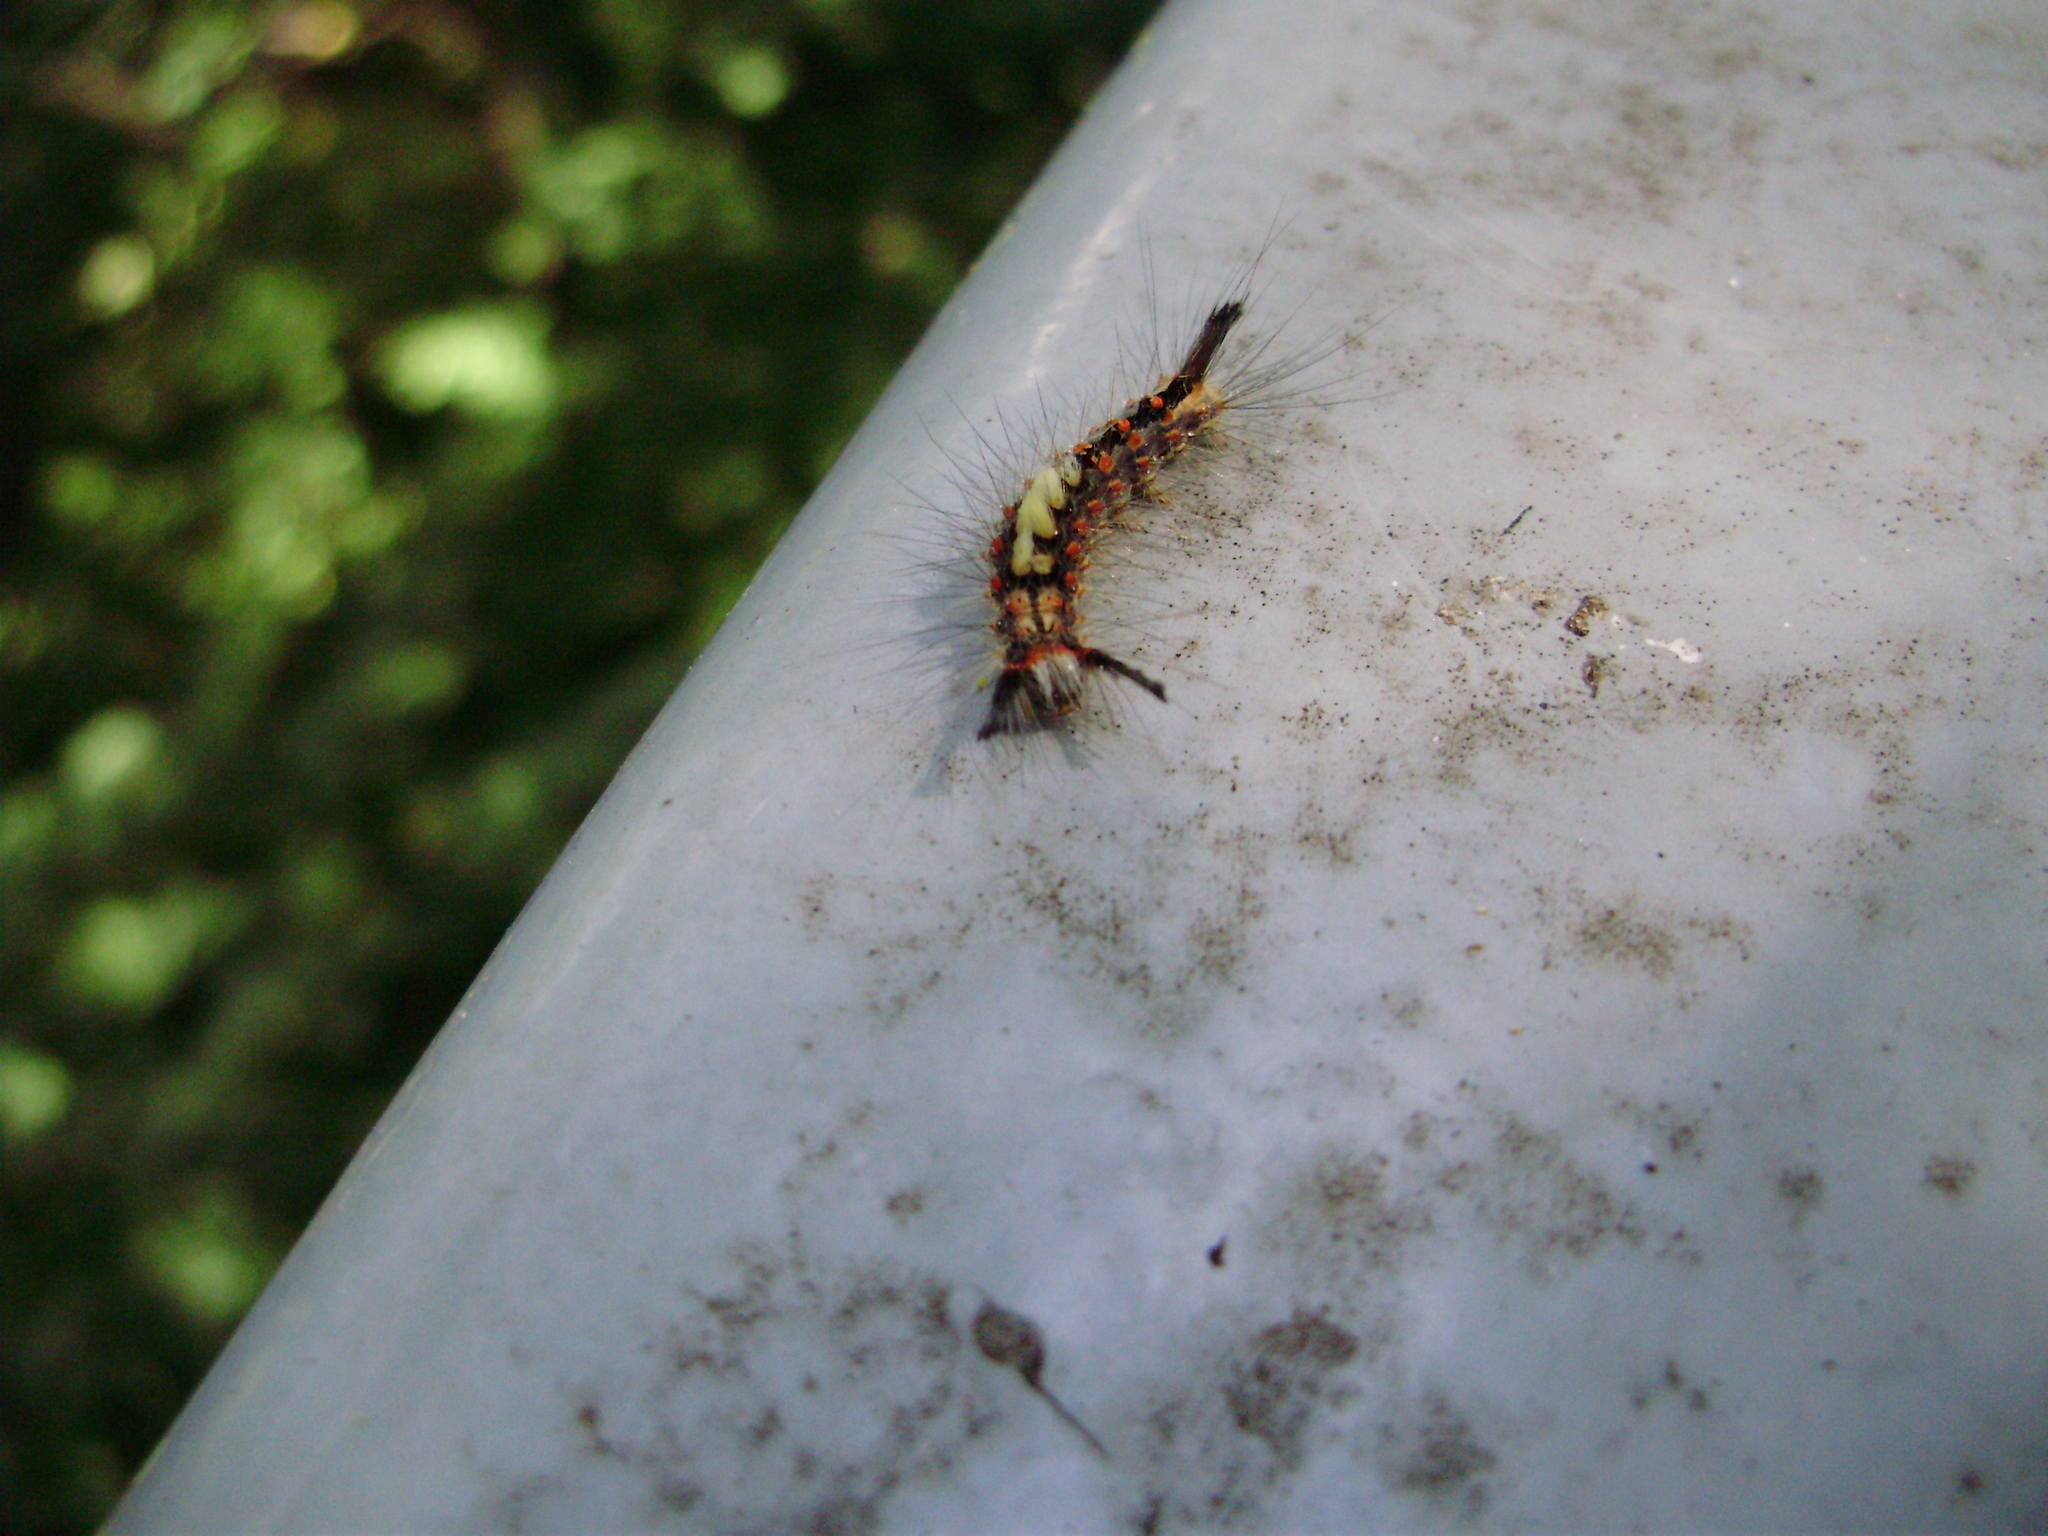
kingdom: Animalia
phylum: Arthropoda
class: Insecta
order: Lepidoptera
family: Erebidae
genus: Orgyia
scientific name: Orgyia antiqua
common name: Vapourer
